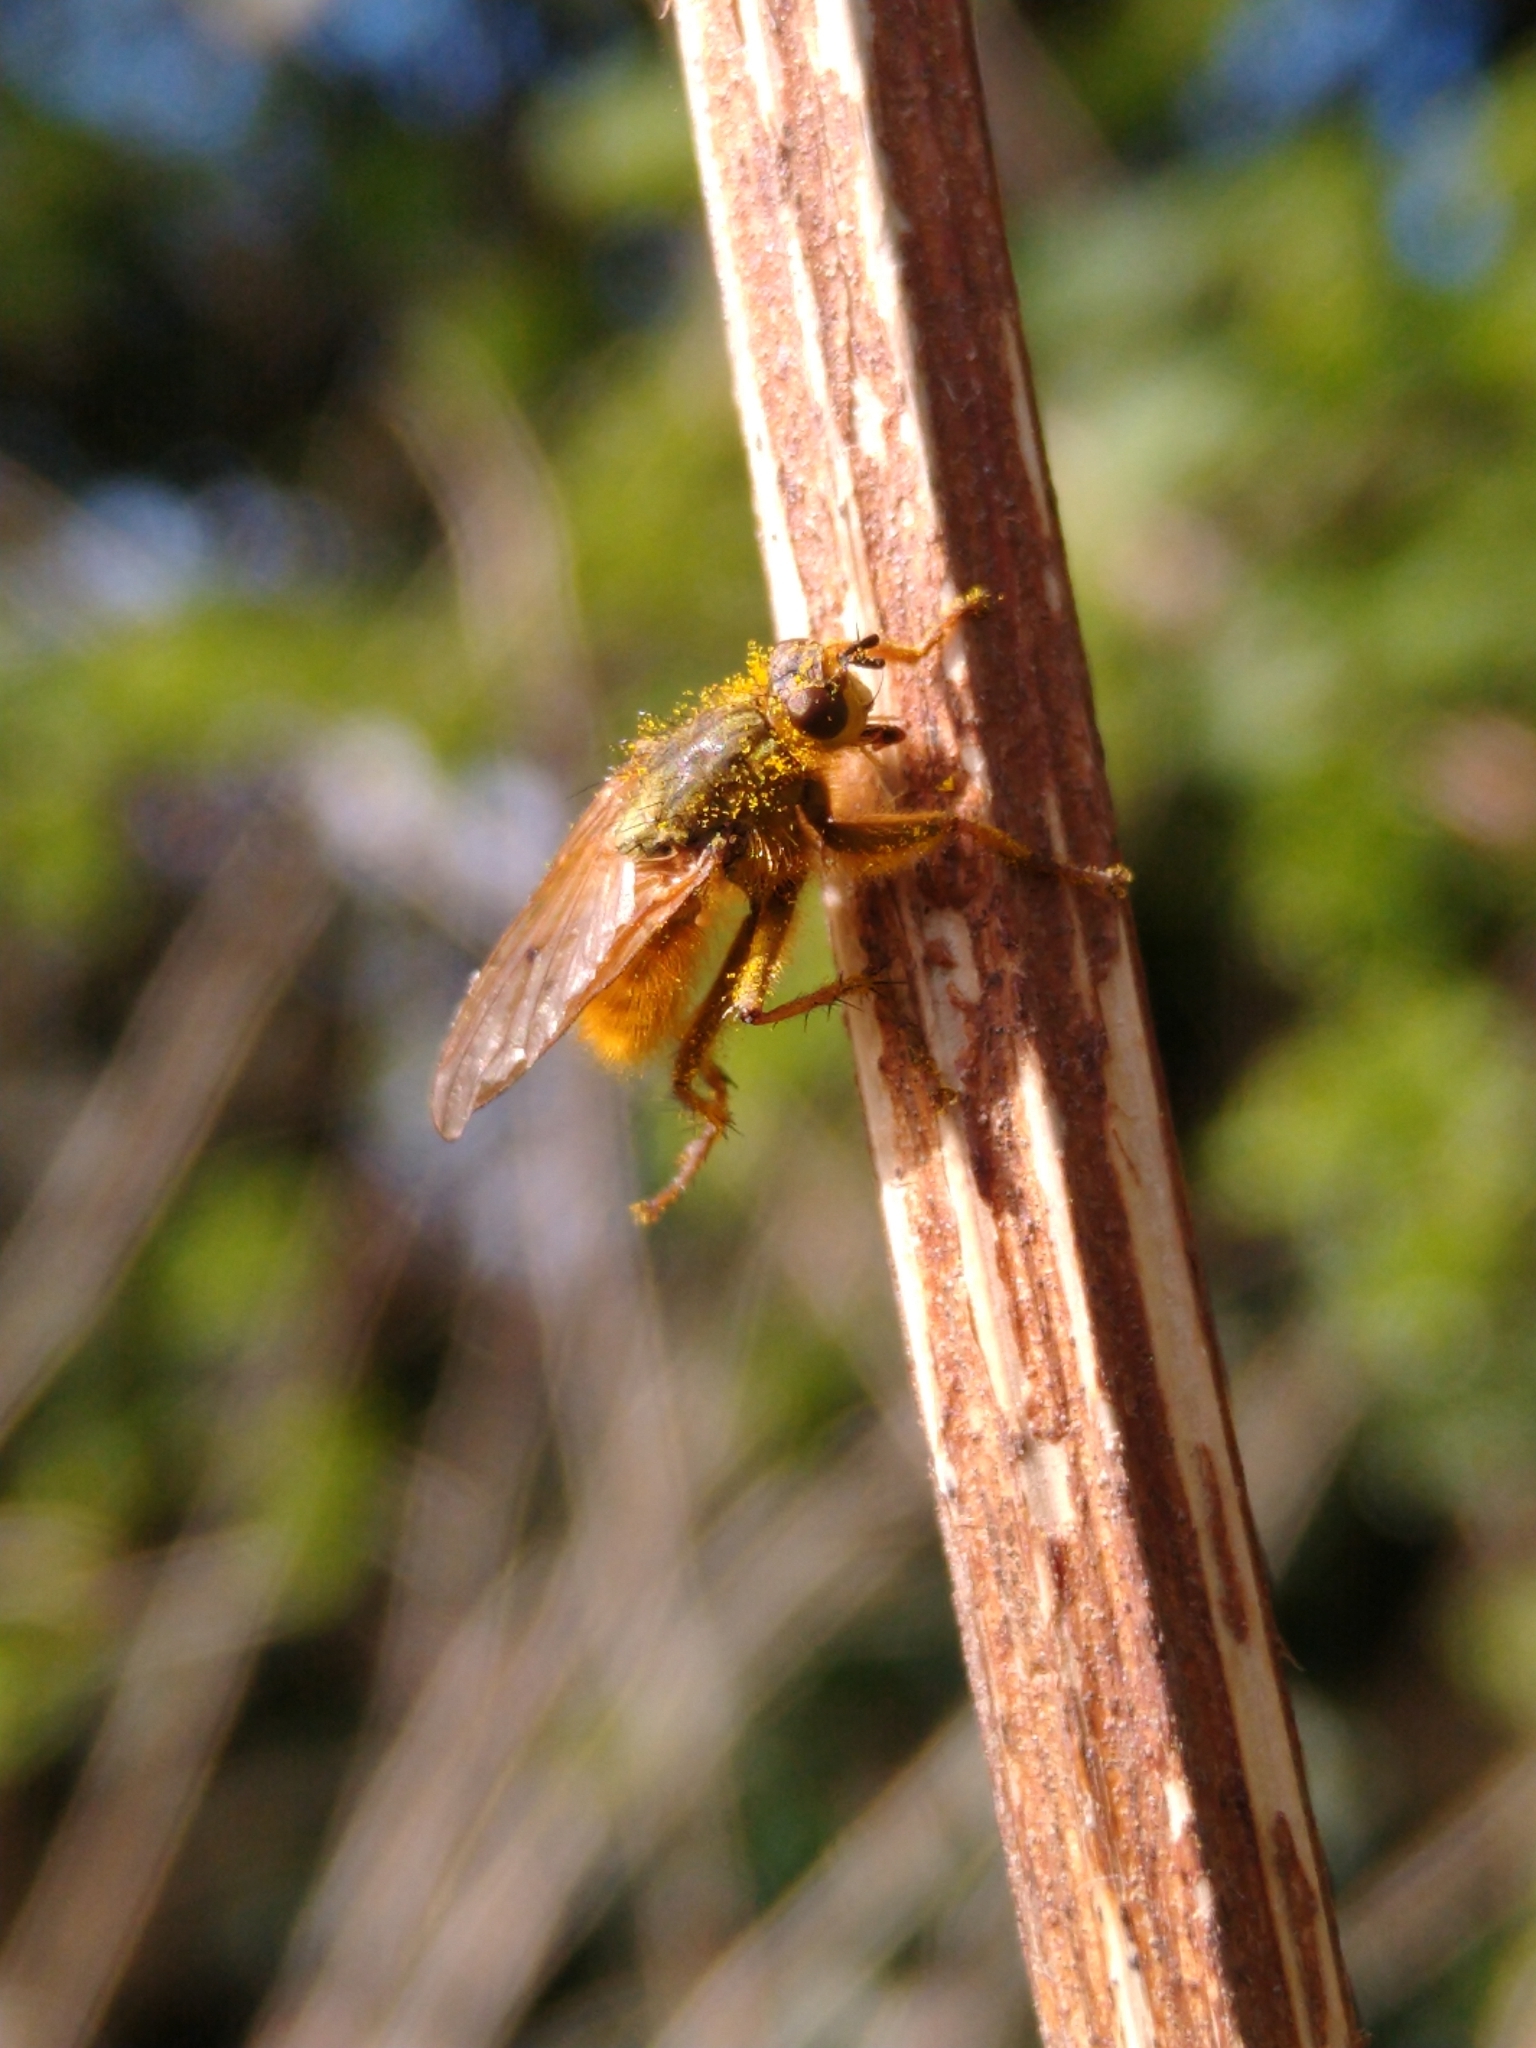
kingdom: Animalia
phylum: Arthropoda
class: Insecta
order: Diptera
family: Scathophagidae
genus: Scathophaga
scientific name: Scathophaga stercoraria
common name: Yellow dung fly
